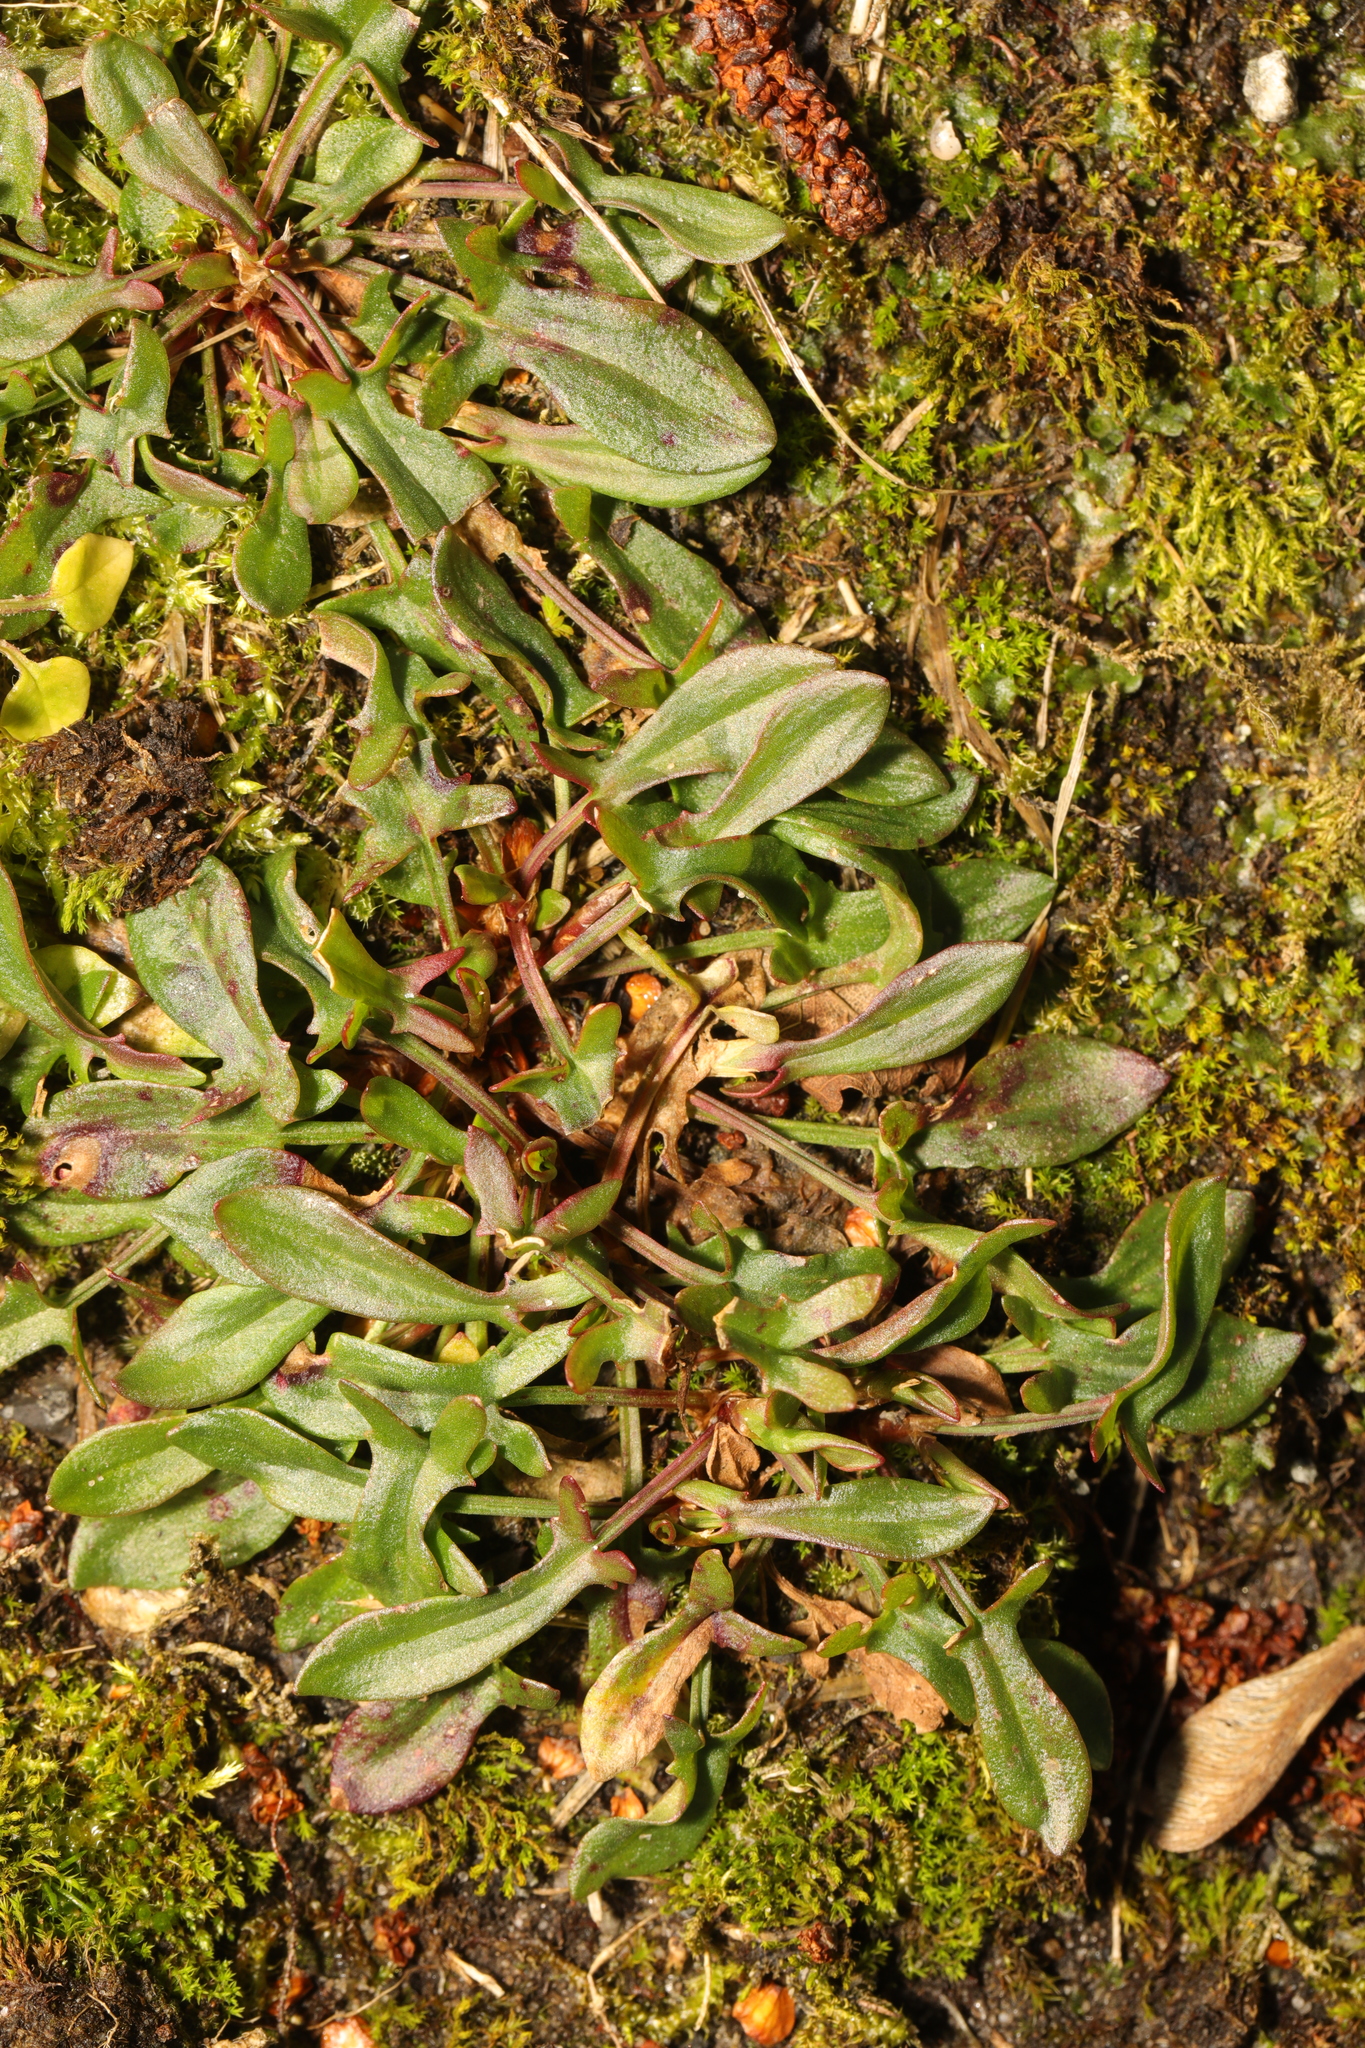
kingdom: Plantae
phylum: Tracheophyta
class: Magnoliopsida
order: Caryophyllales
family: Polygonaceae
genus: Rumex
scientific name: Rumex acetosella
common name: Common sheep sorrel
